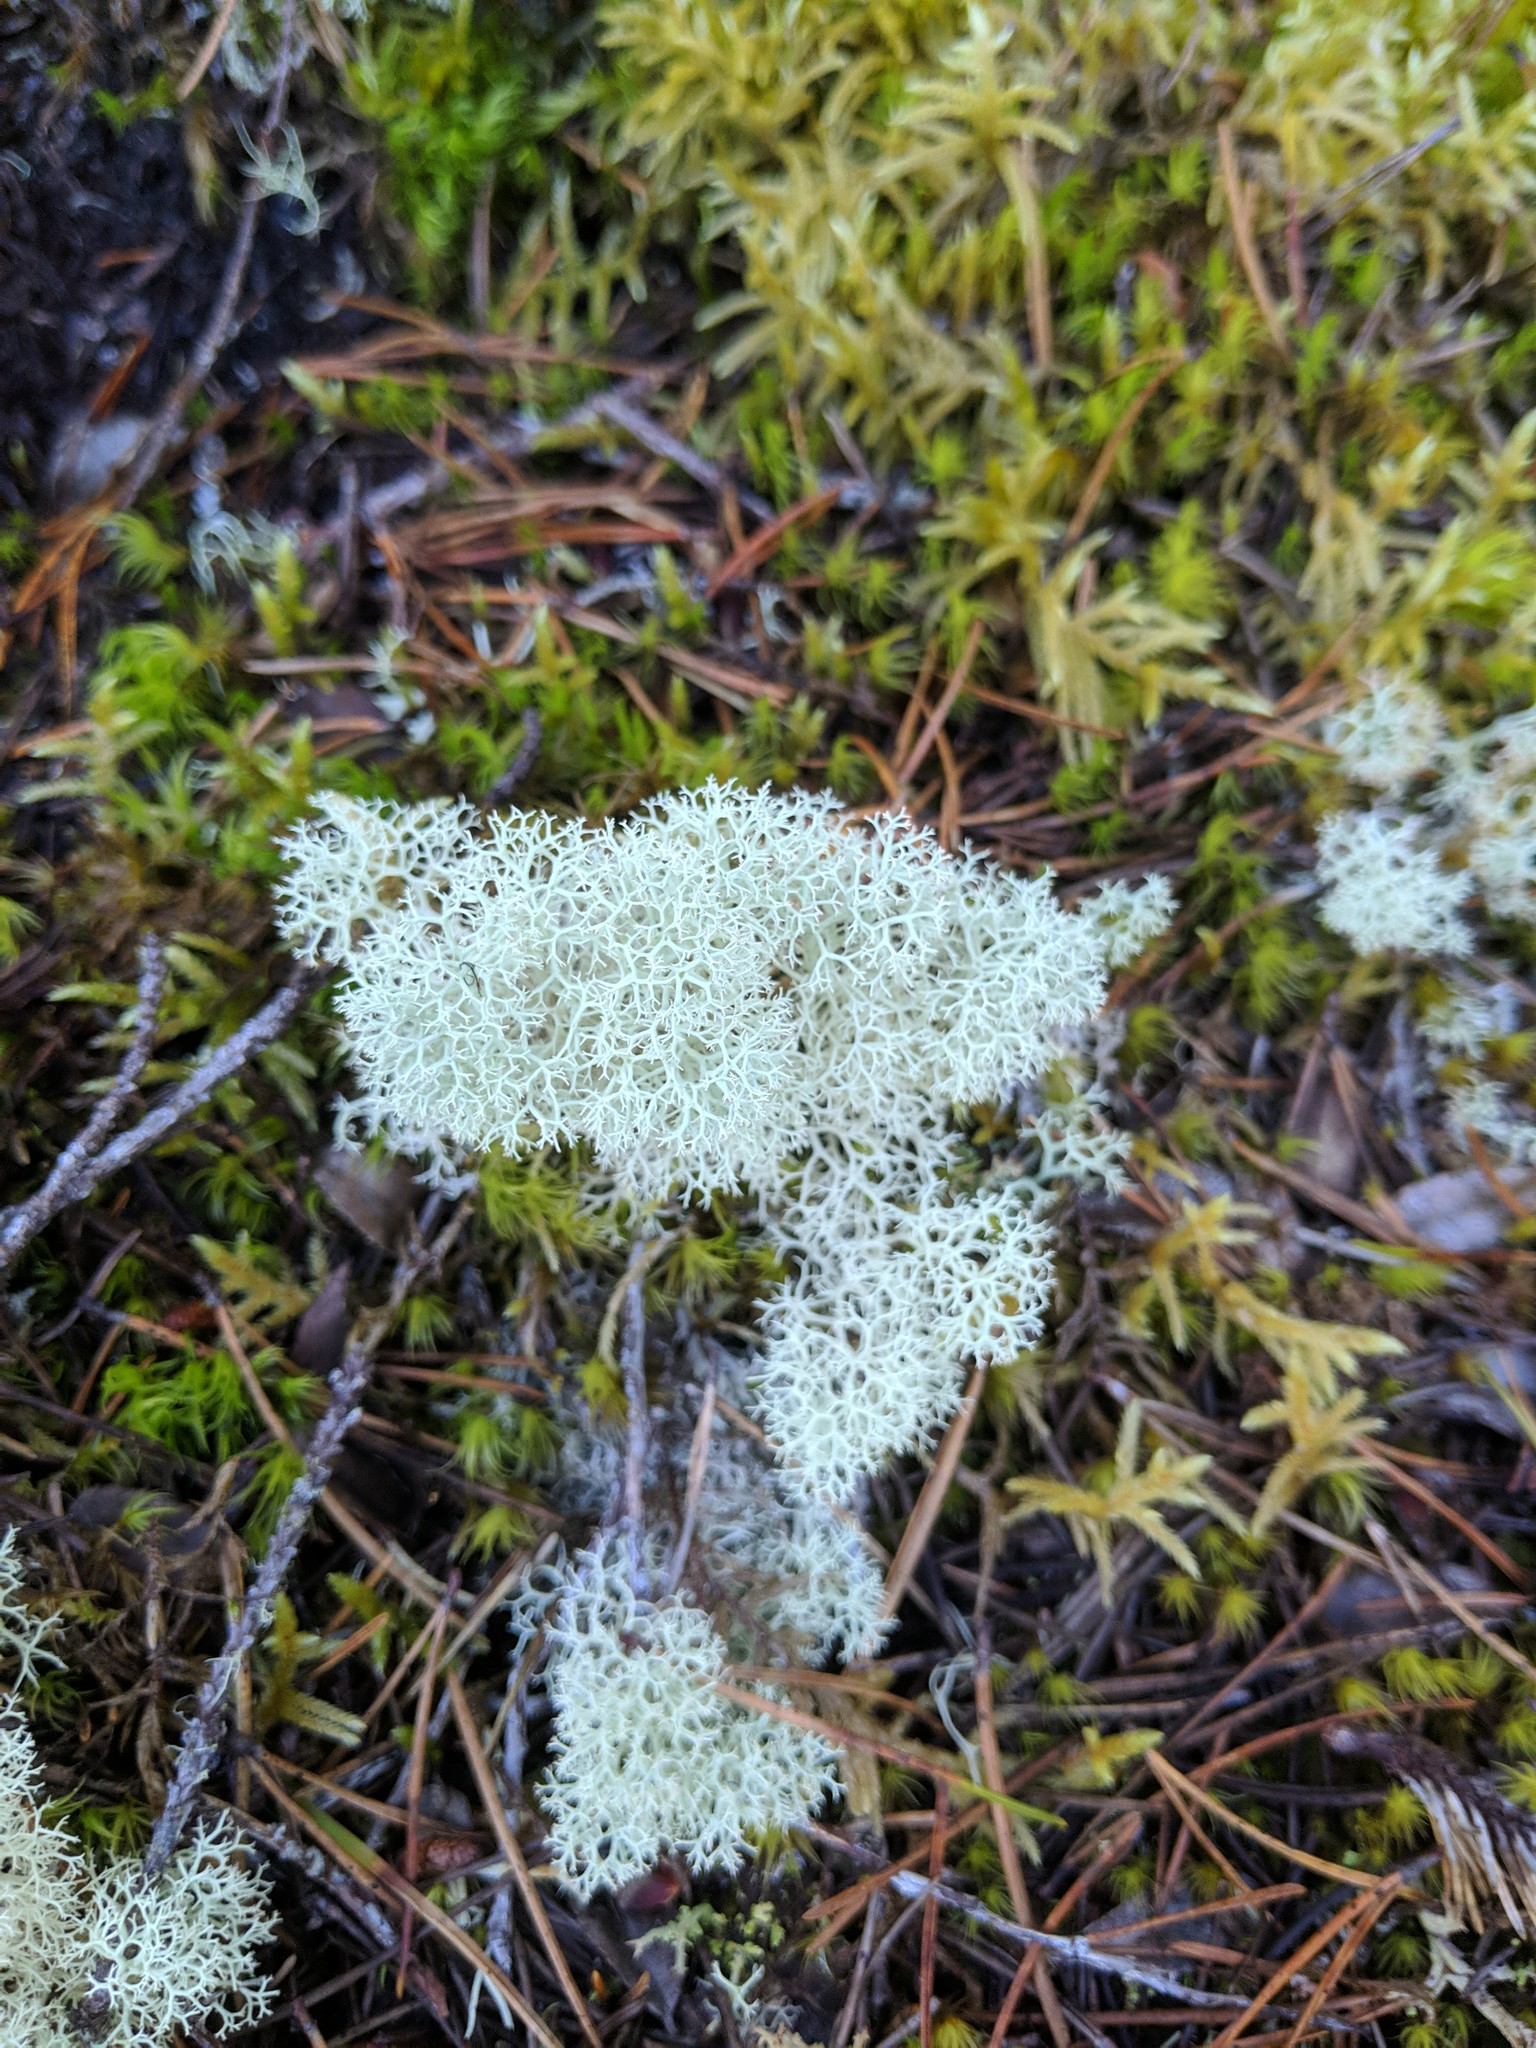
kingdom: Fungi
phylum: Ascomycota
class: Lecanoromycetes
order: Lecanorales
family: Cladoniaceae
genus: Cladonia
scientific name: Cladonia portentosa
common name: Reindeer lichen
